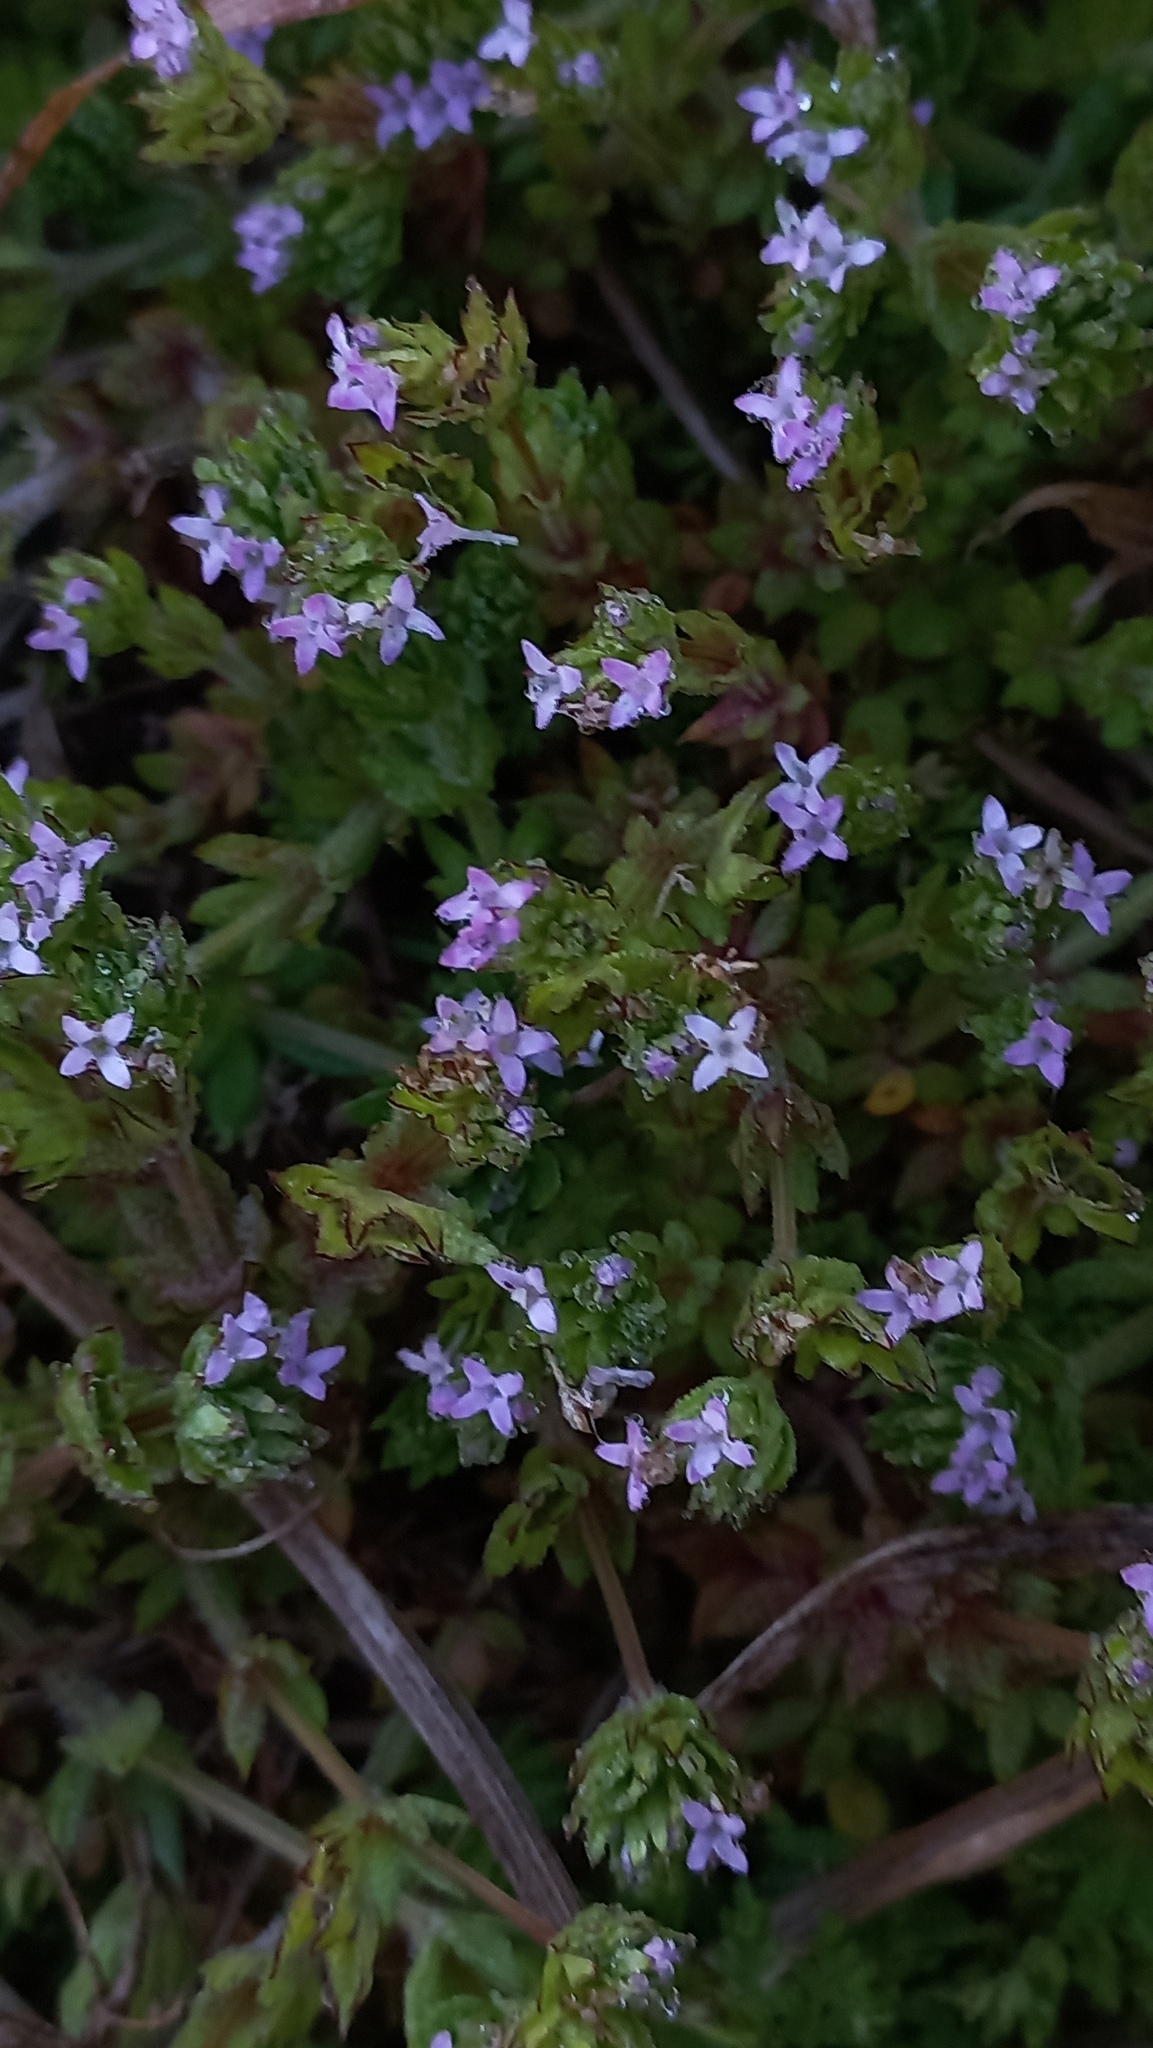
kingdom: Plantae
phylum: Tracheophyta
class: Magnoliopsida
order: Gentianales
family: Rubiaceae
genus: Sherardia
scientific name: Sherardia arvensis
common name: Field madder
